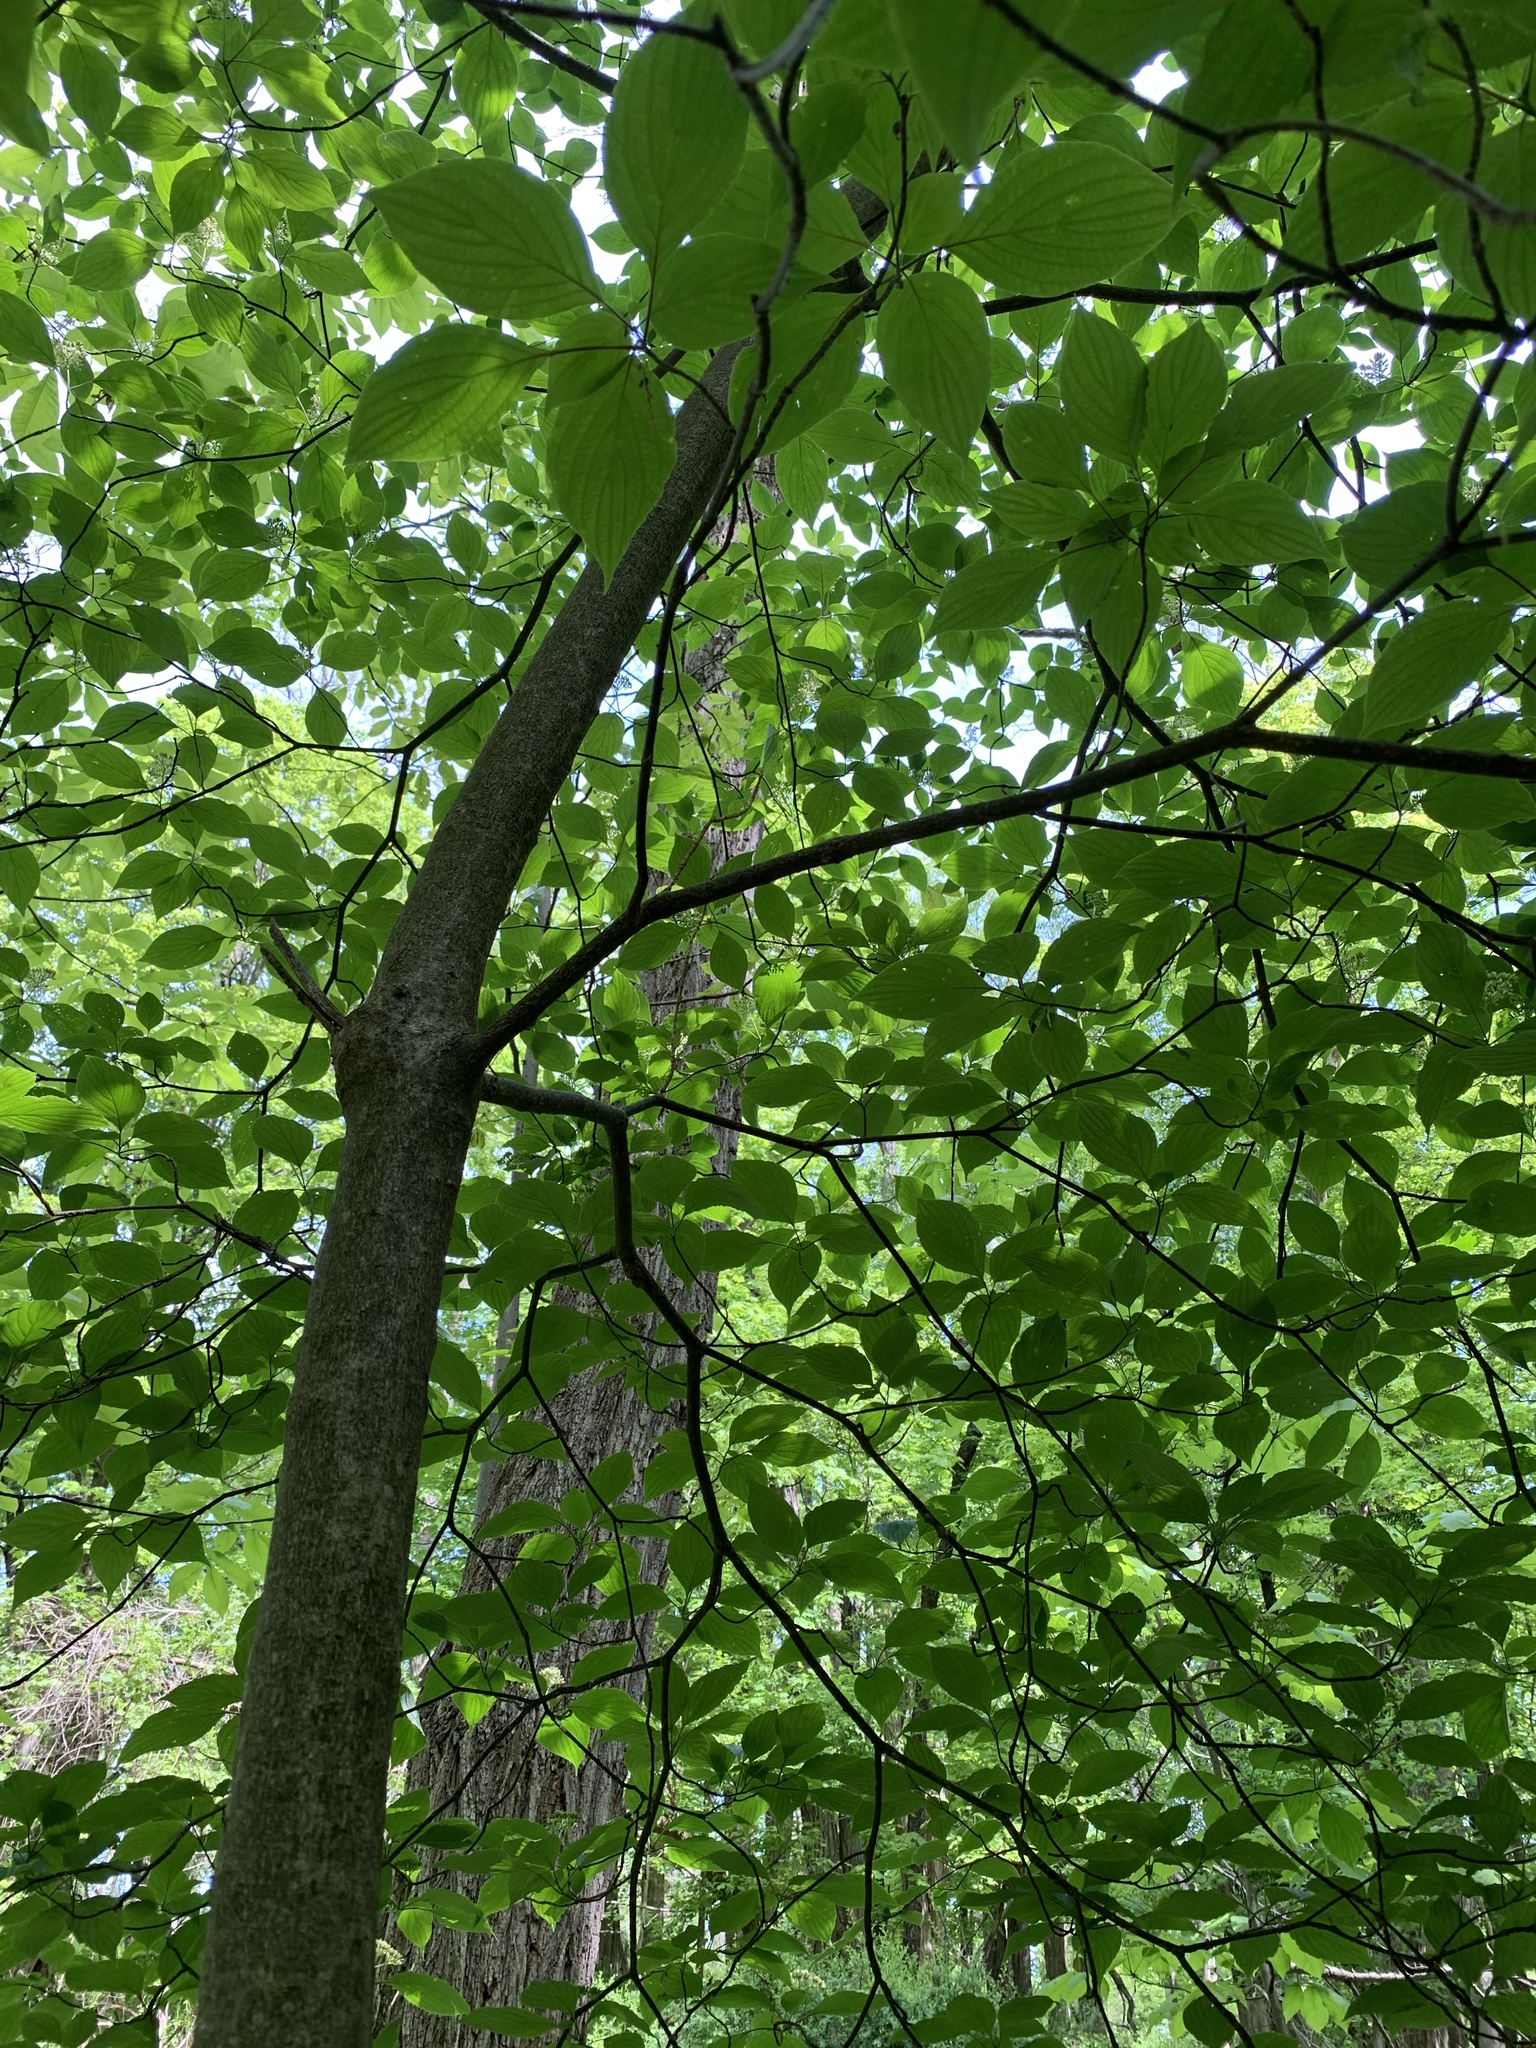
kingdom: Plantae
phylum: Tracheophyta
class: Magnoliopsida
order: Cornales
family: Cornaceae
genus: Cornus
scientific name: Cornus alternifolia
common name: Pagoda dogwood
